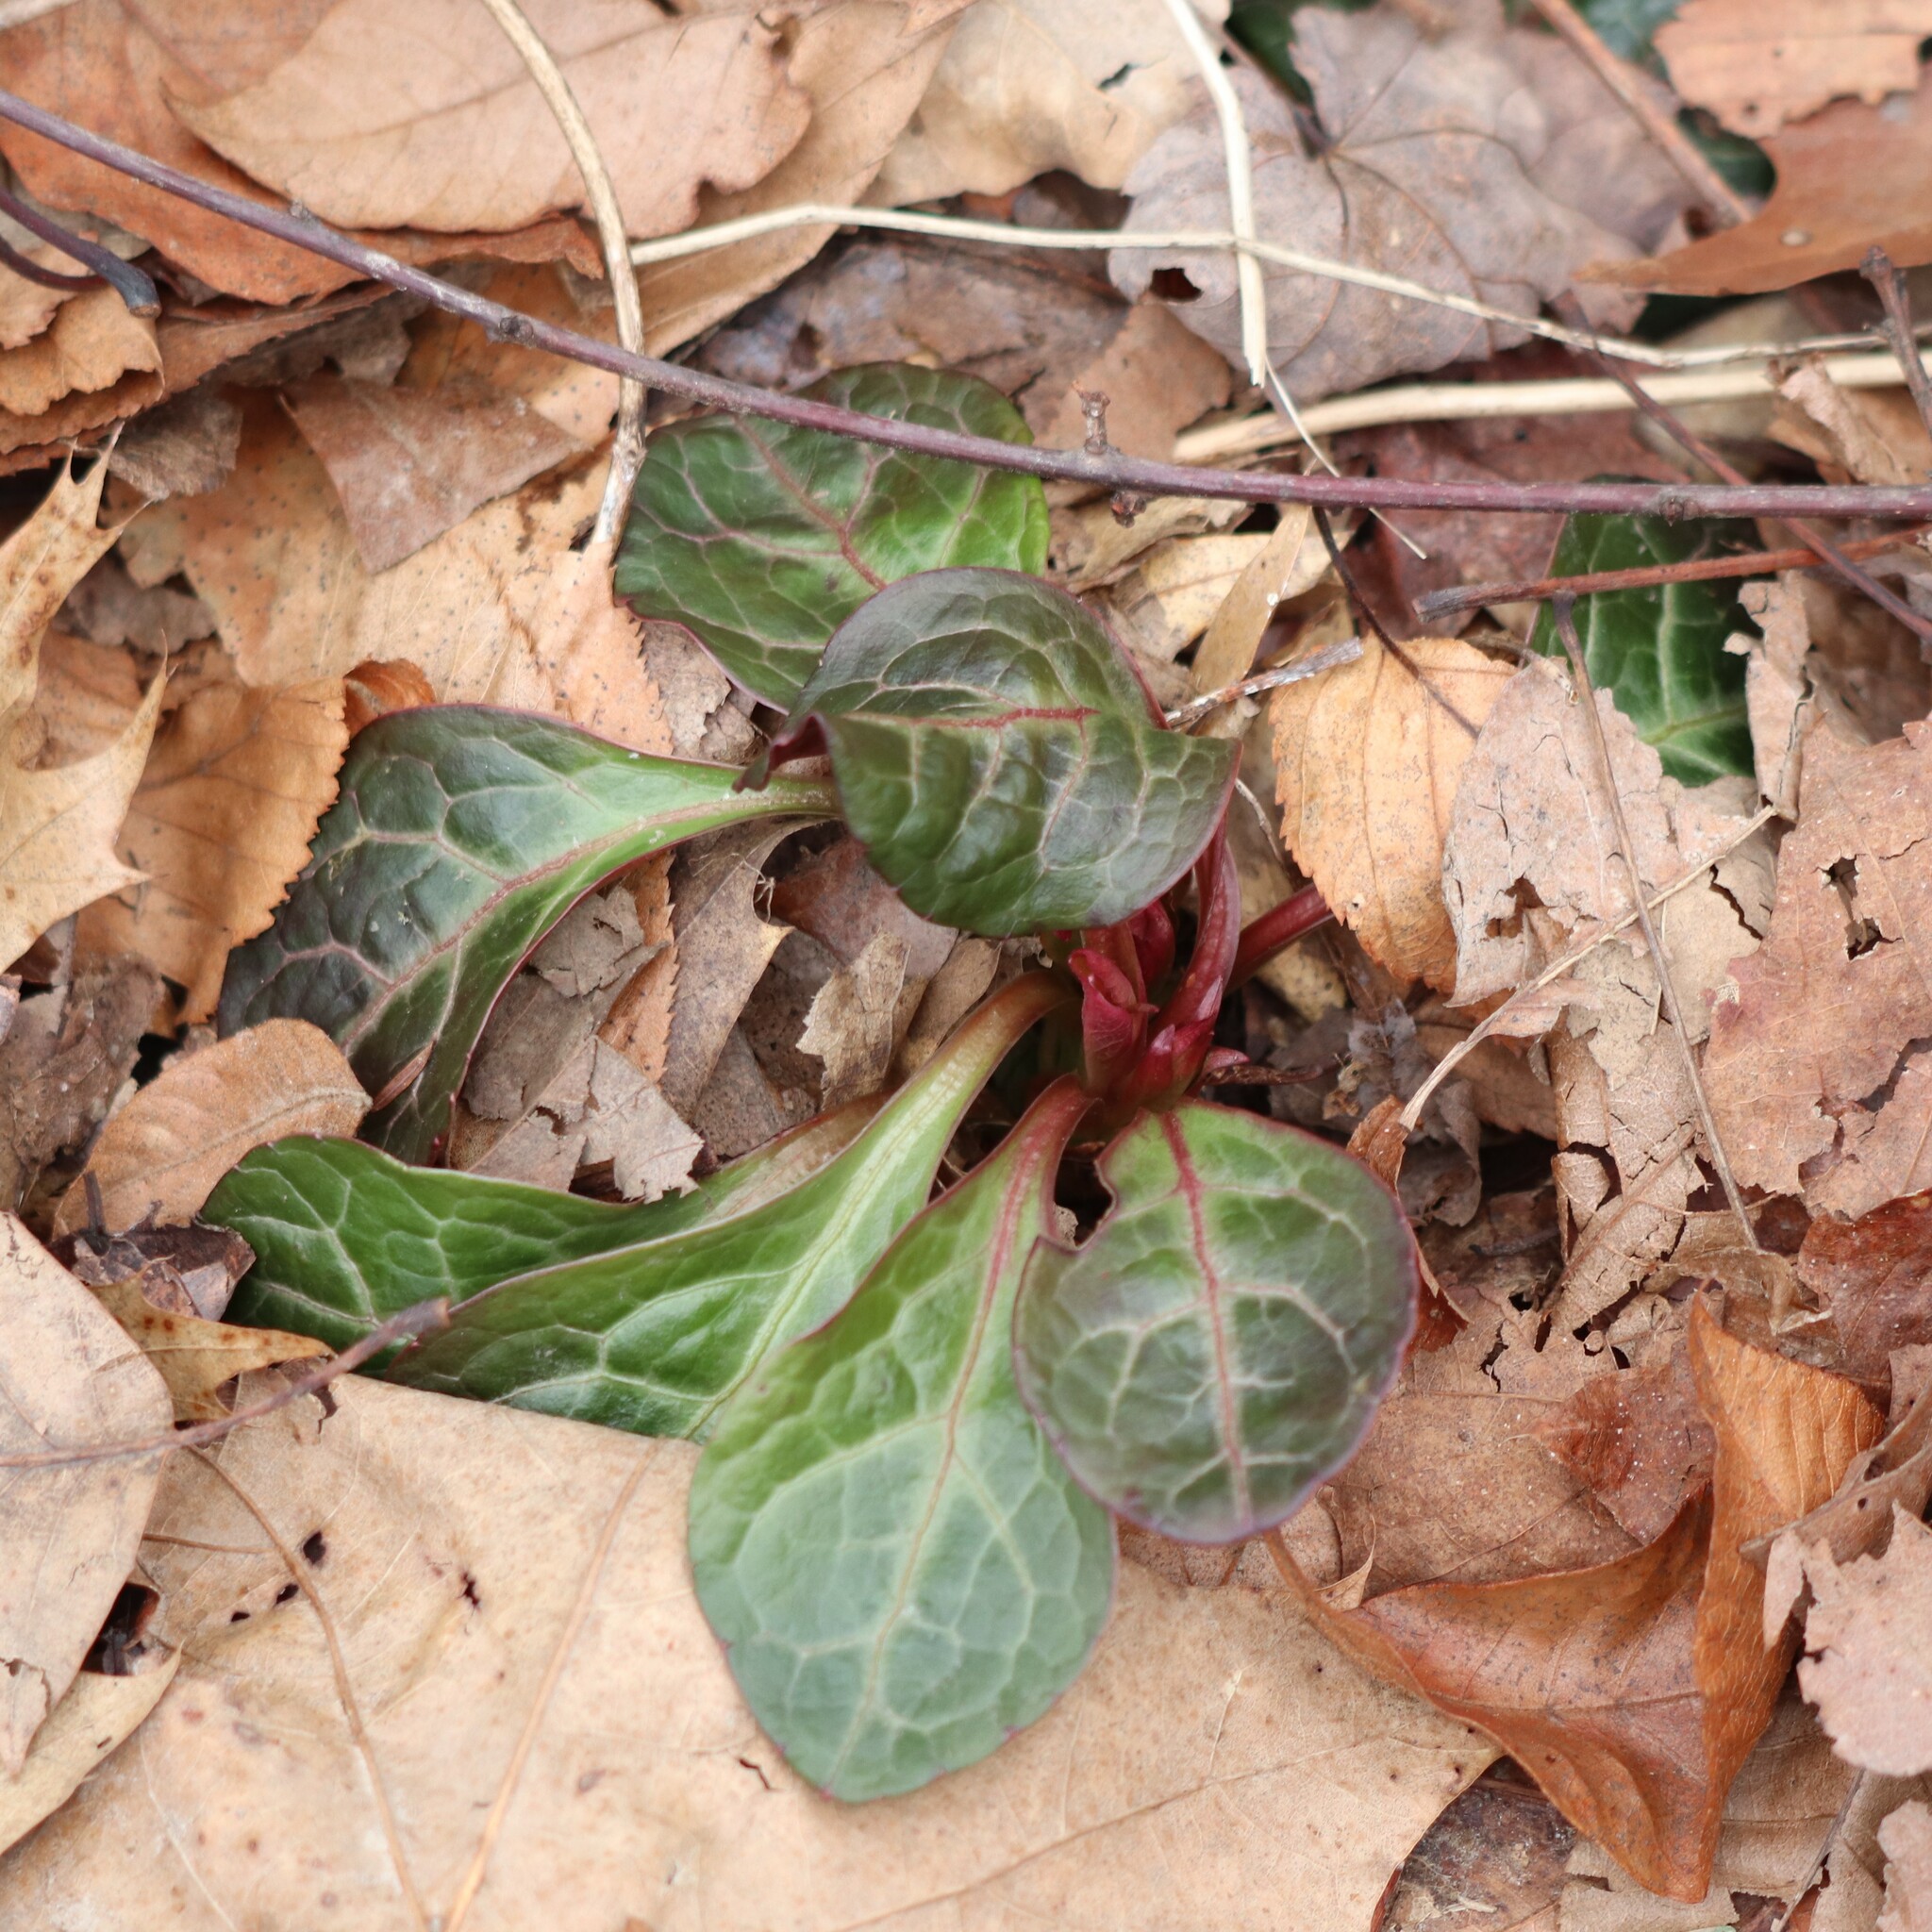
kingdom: Plantae
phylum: Tracheophyta
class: Magnoliopsida
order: Ericales
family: Ericaceae
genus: Pyrola
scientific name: Pyrola americana
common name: American wintergreen
